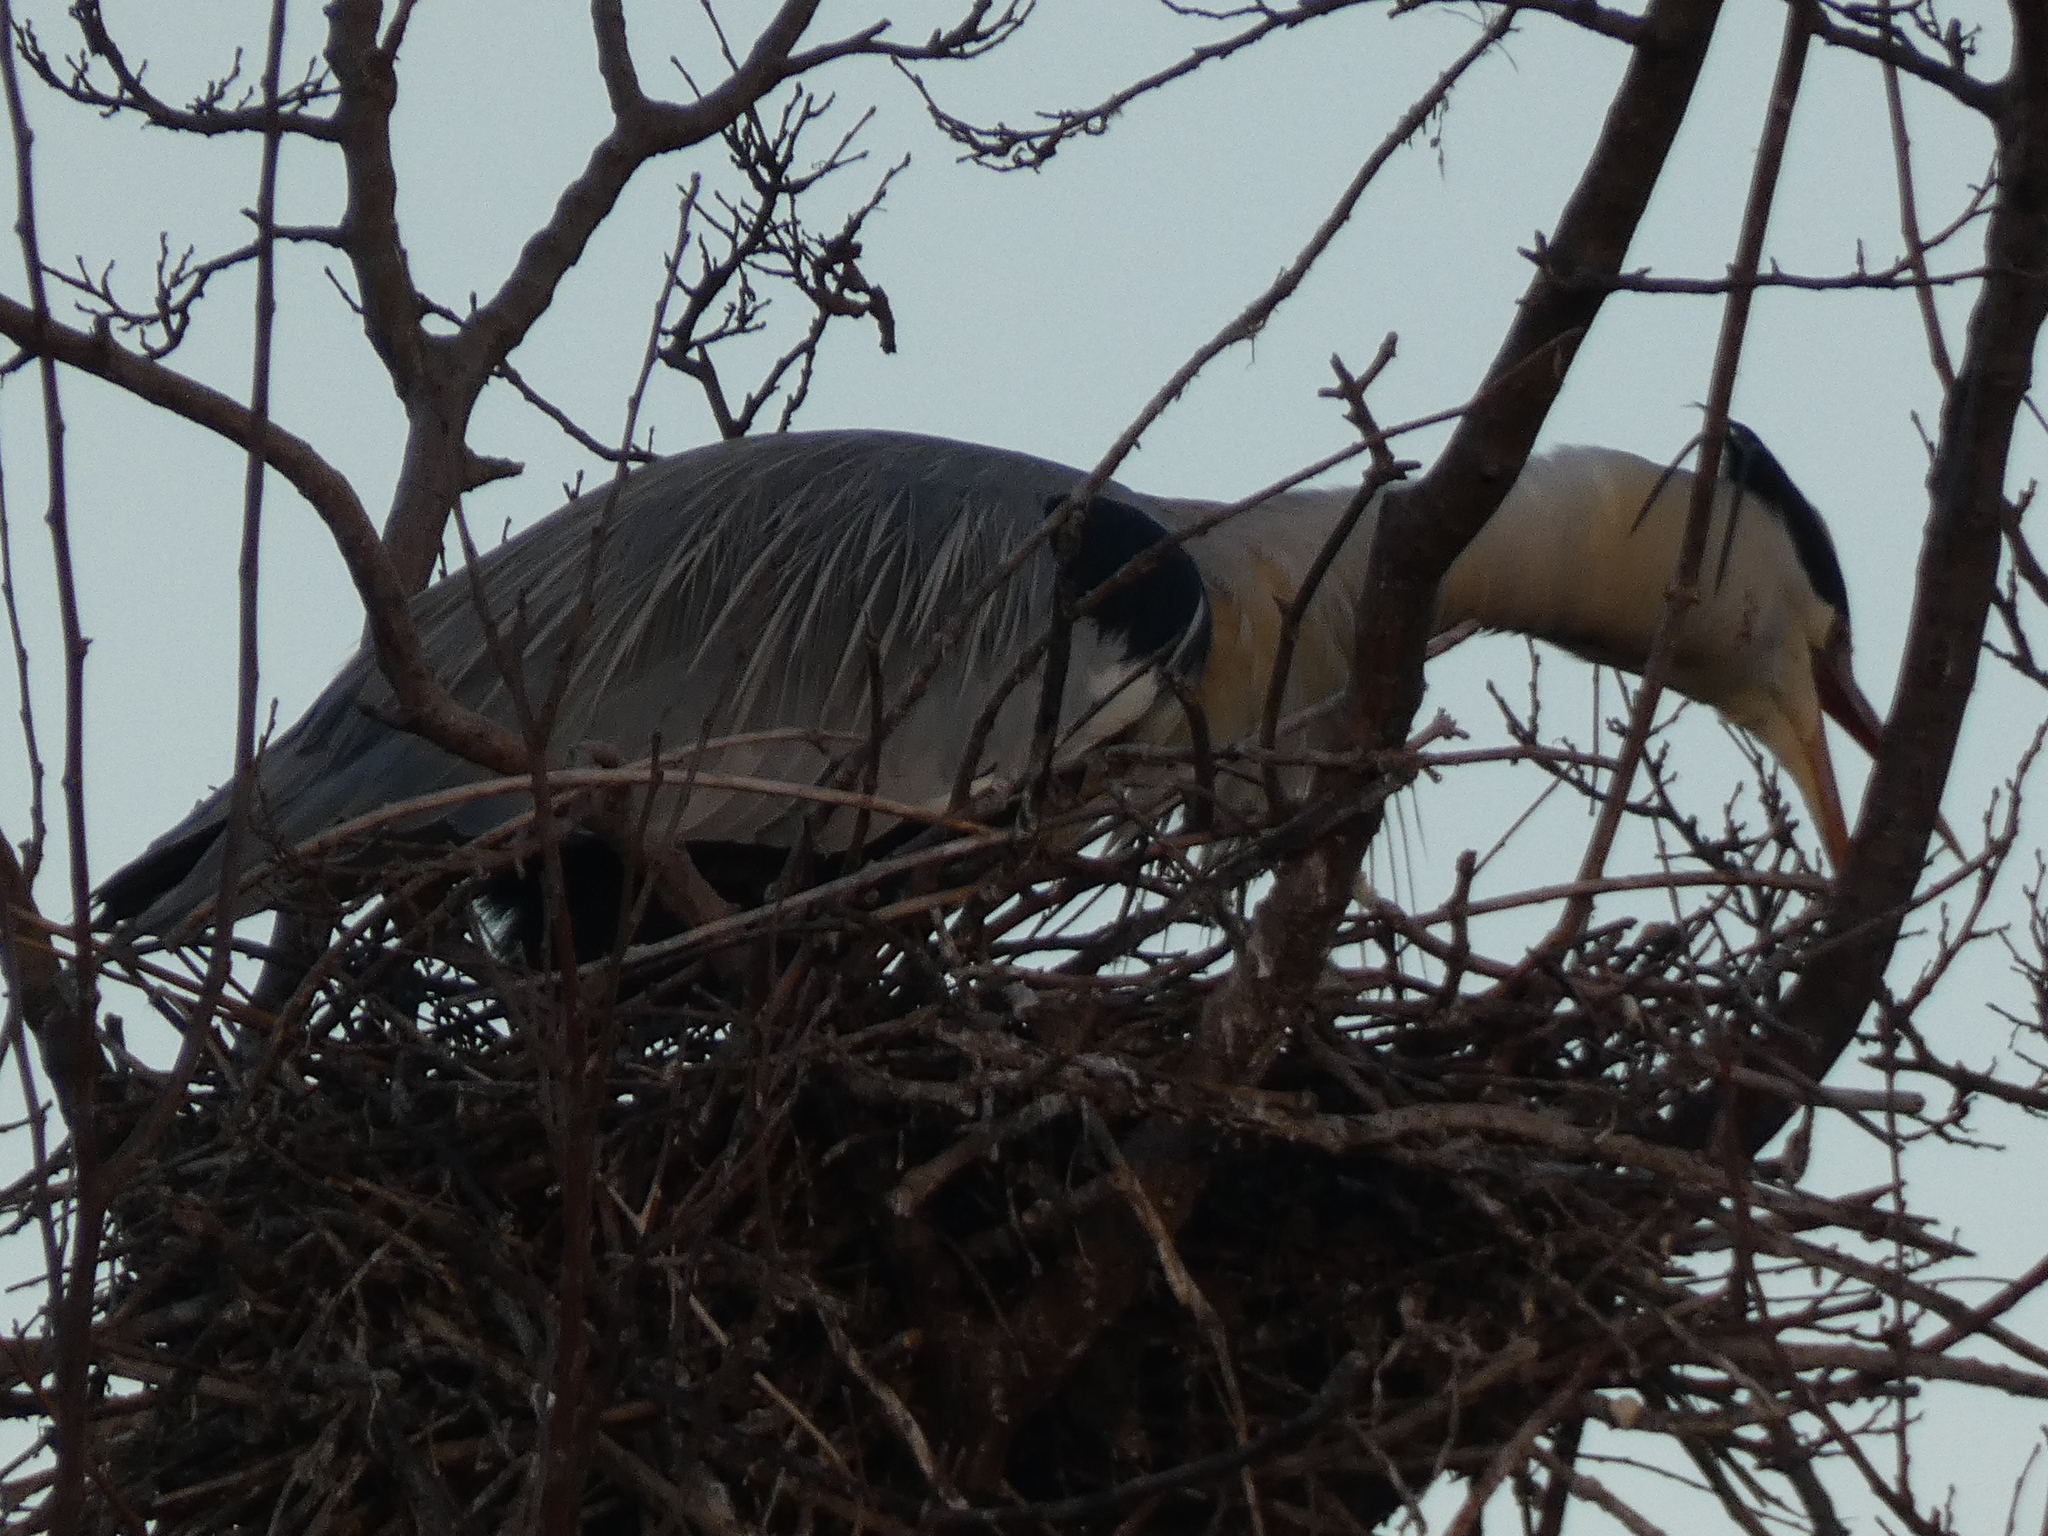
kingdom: Animalia
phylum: Chordata
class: Aves
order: Pelecaniformes
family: Ardeidae
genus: Ardea
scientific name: Ardea cinerea
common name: Grey heron
